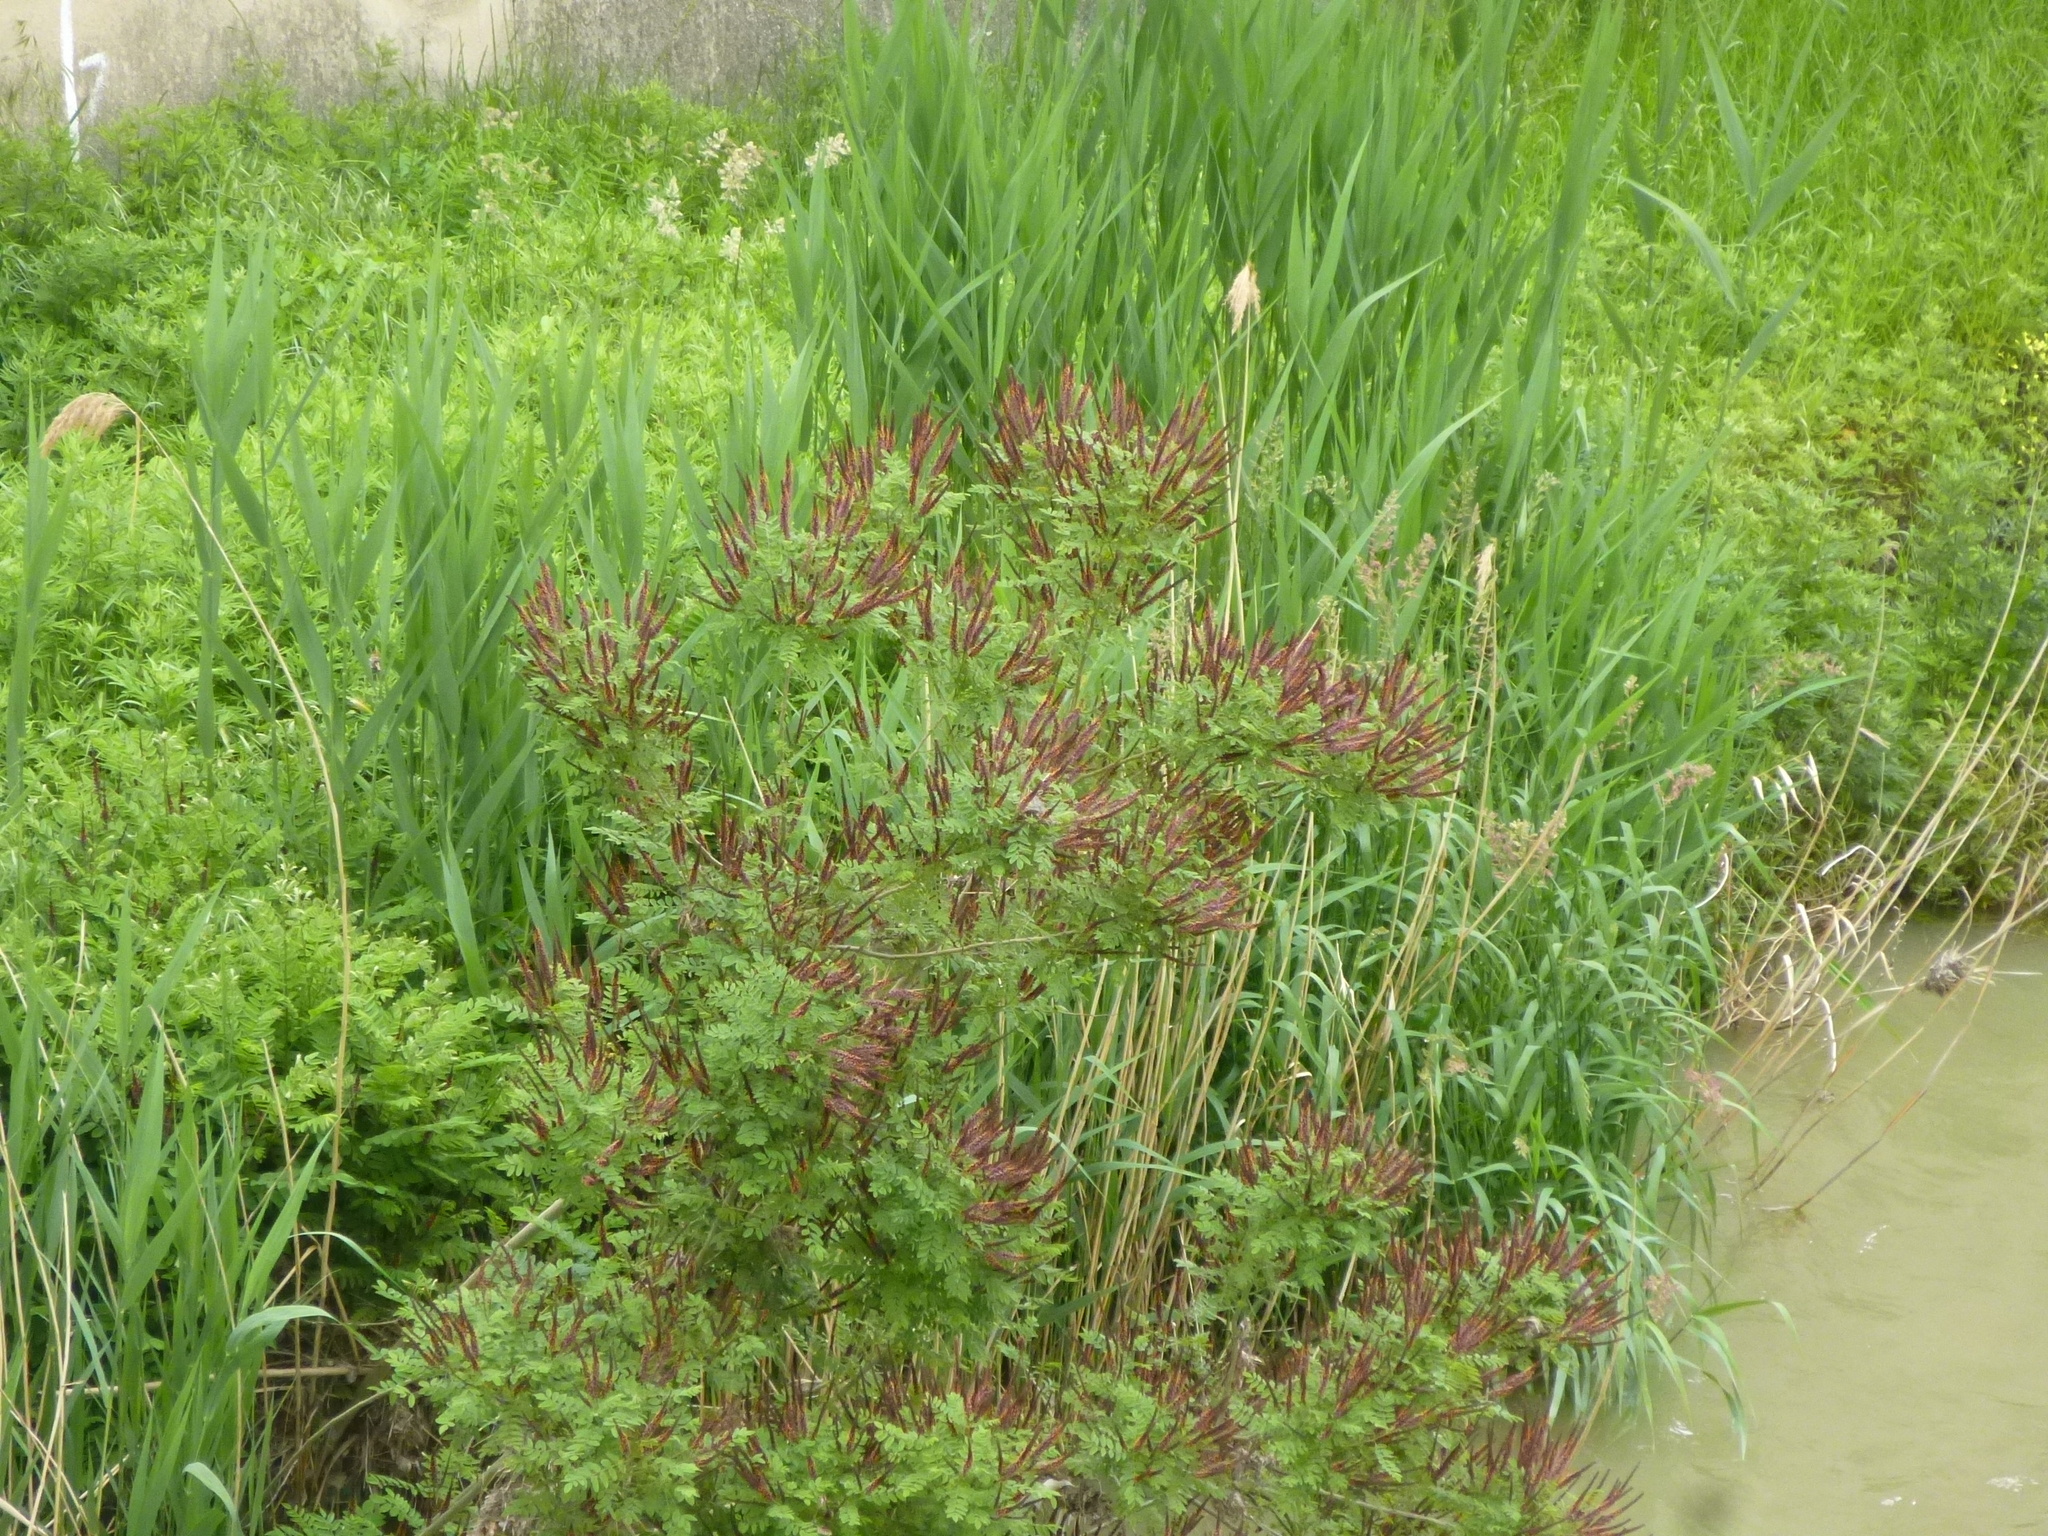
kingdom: Plantae
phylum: Tracheophyta
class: Magnoliopsida
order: Fabales
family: Fabaceae
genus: Amorpha
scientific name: Amorpha fruticosa
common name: False indigo
